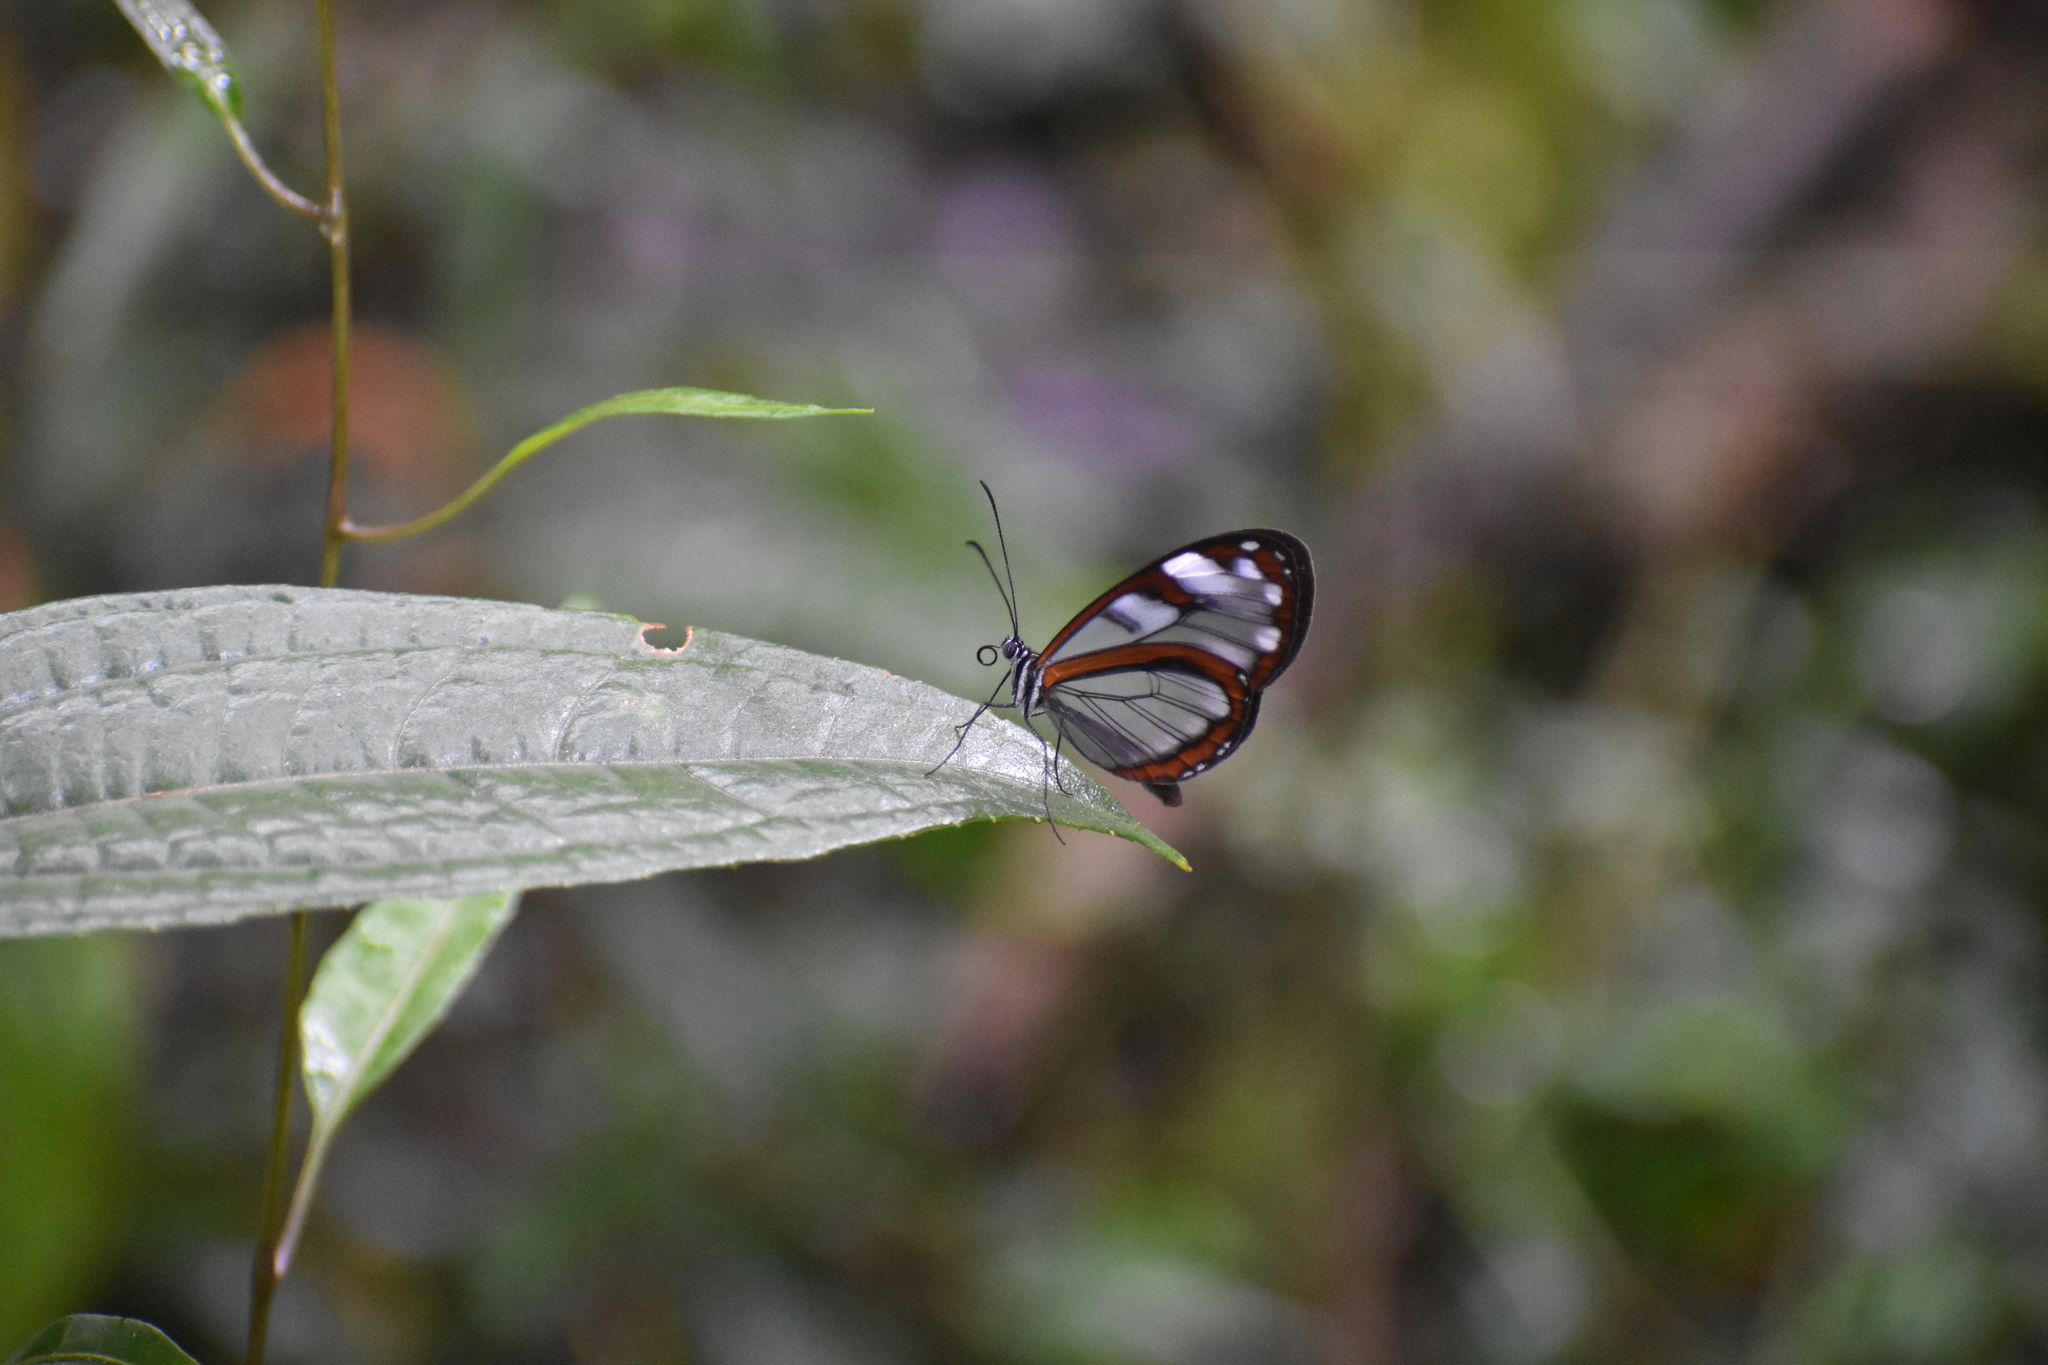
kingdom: Animalia
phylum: Arthropoda
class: Insecta
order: Lepidoptera
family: Nymphalidae
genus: Greta
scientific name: Greta andromica
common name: Andromica clearwing
